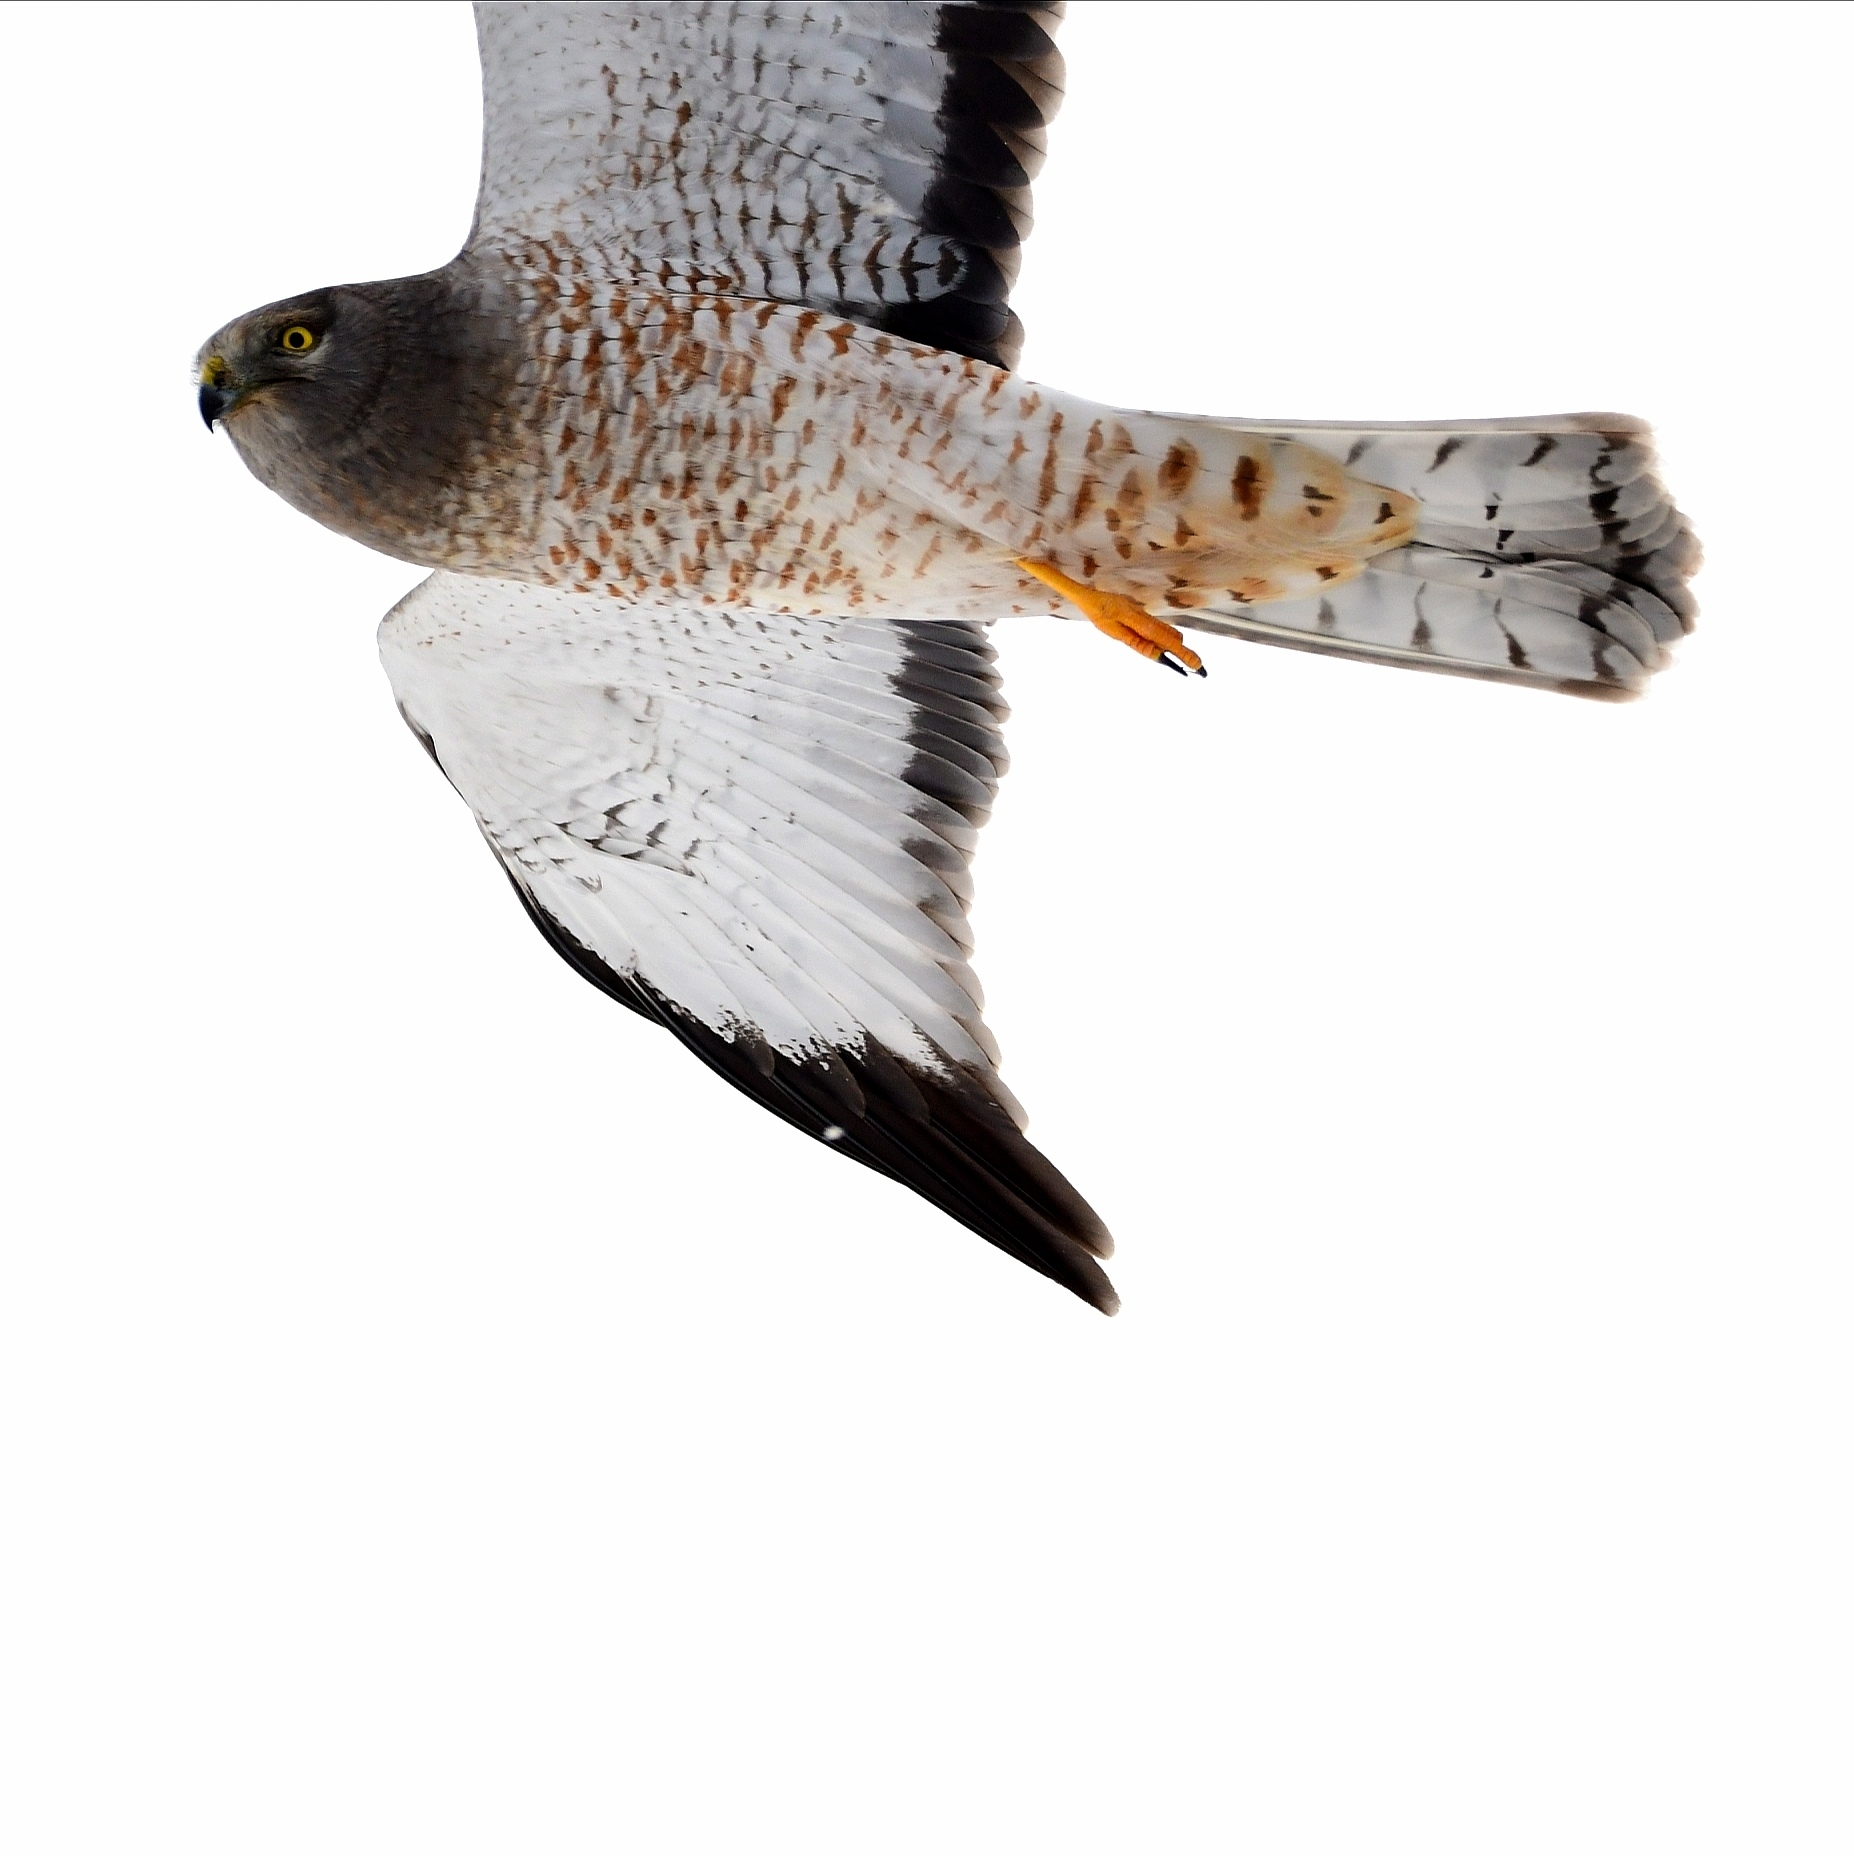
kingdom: Animalia
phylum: Chordata
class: Aves
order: Accipitriformes
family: Accipitridae
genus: Circus
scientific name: Circus cyaneus
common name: Hen harrier
